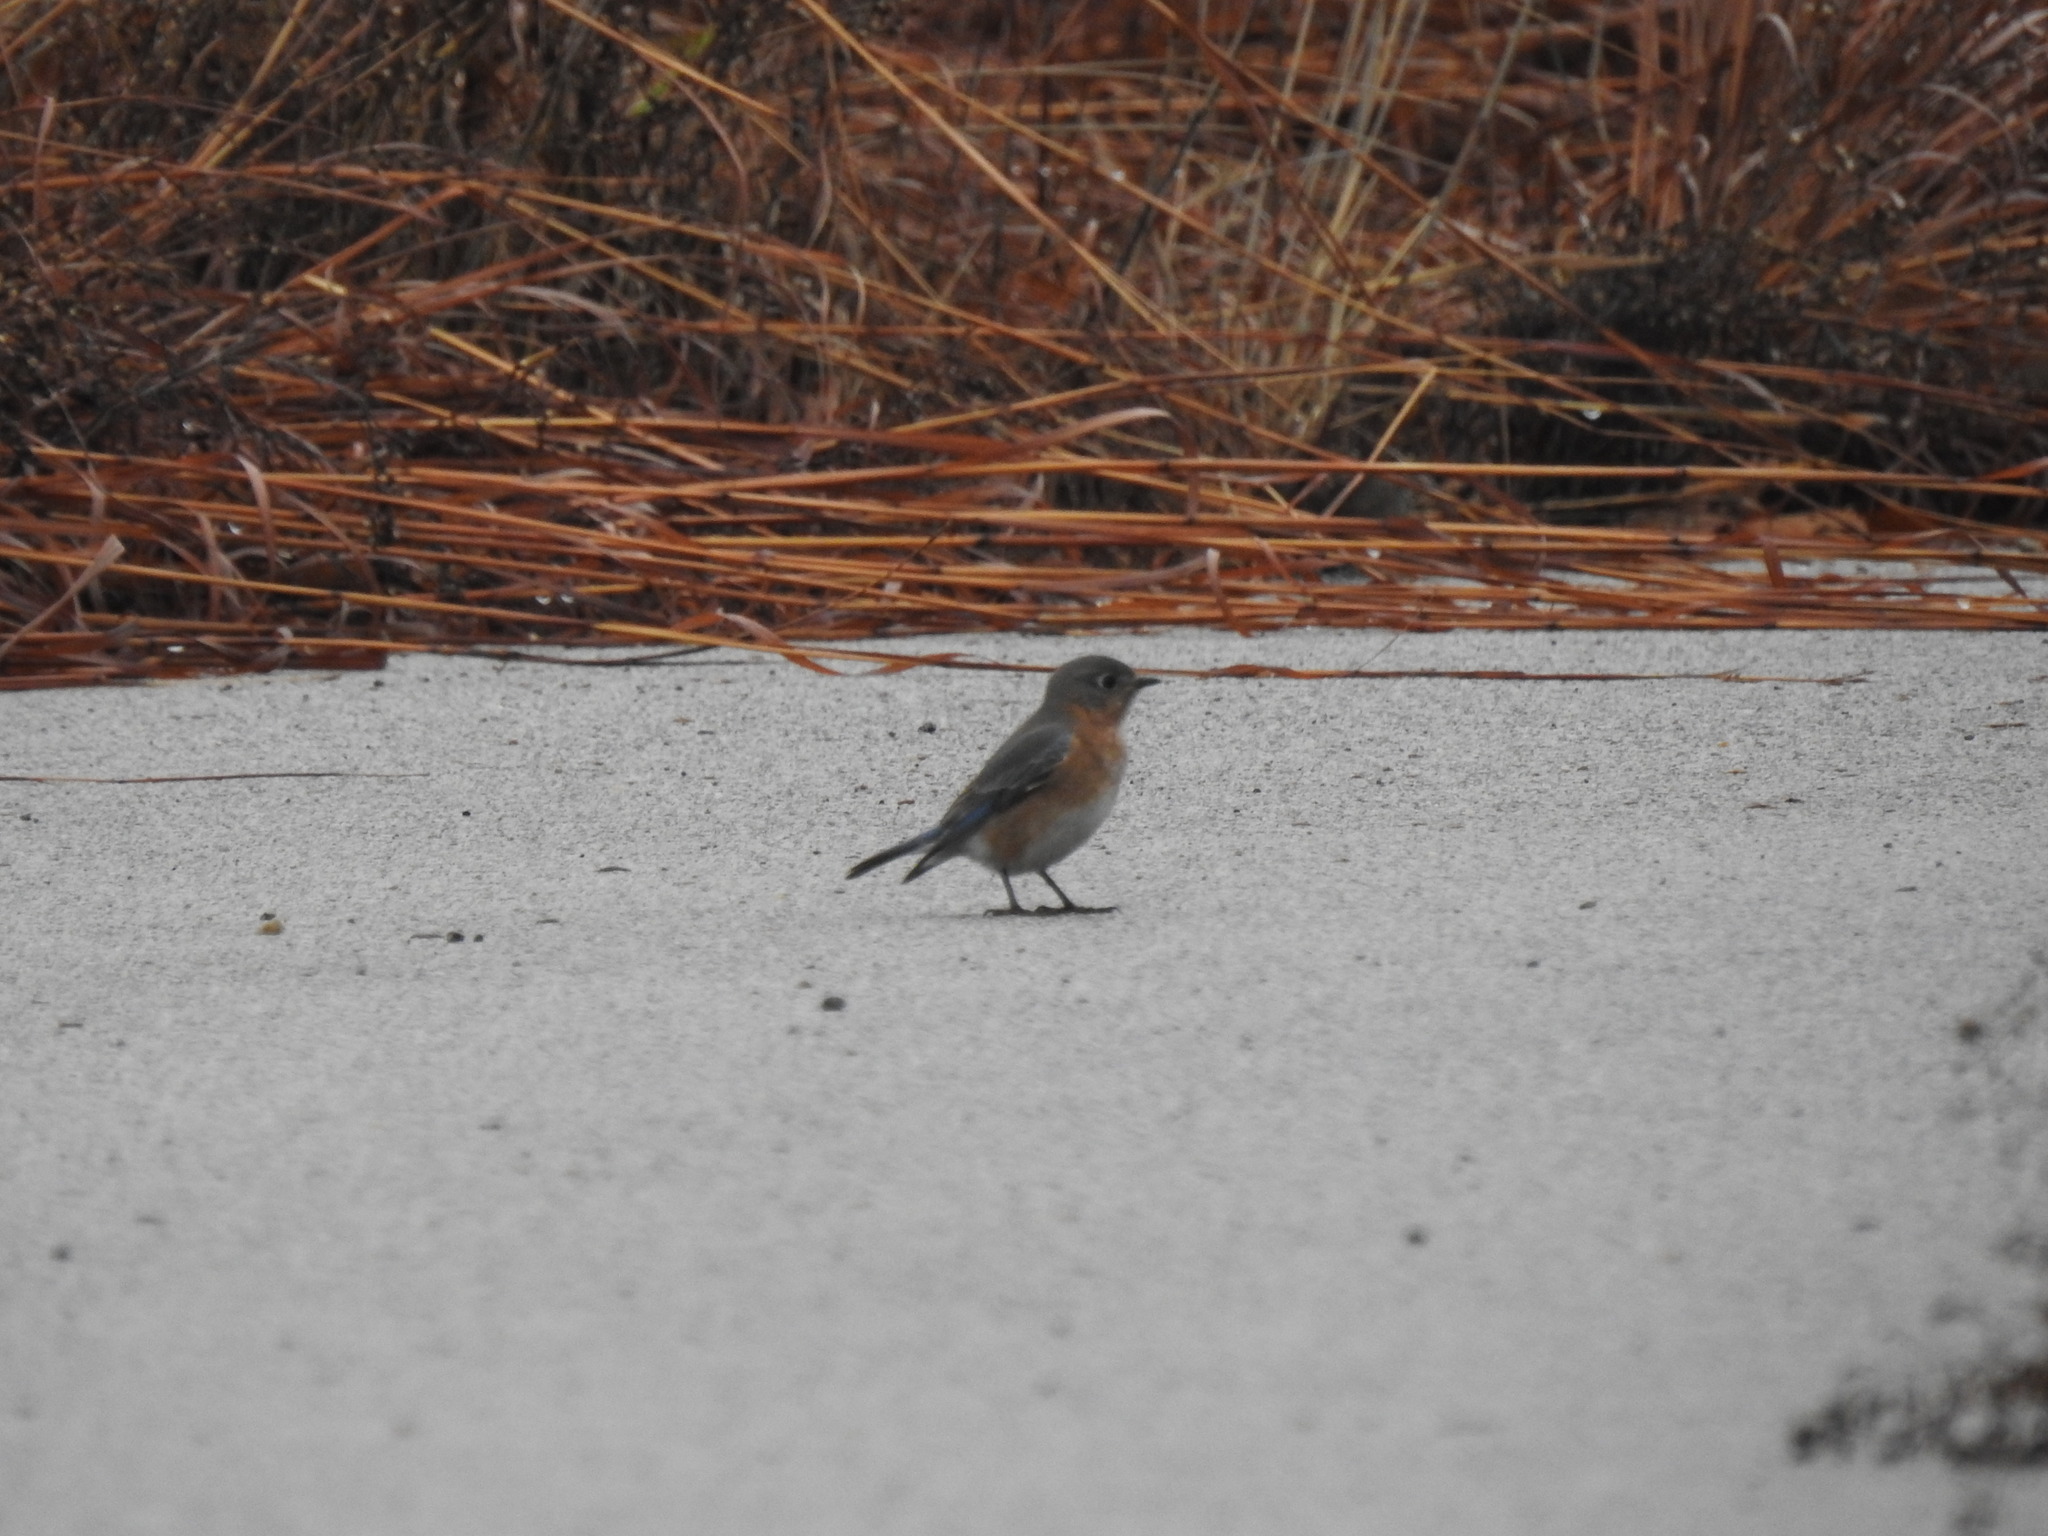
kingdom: Animalia
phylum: Chordata
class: Aves
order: Passeriformes
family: Turdidae
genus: Sialia
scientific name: Sialia sialis
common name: Eastern bluebird
